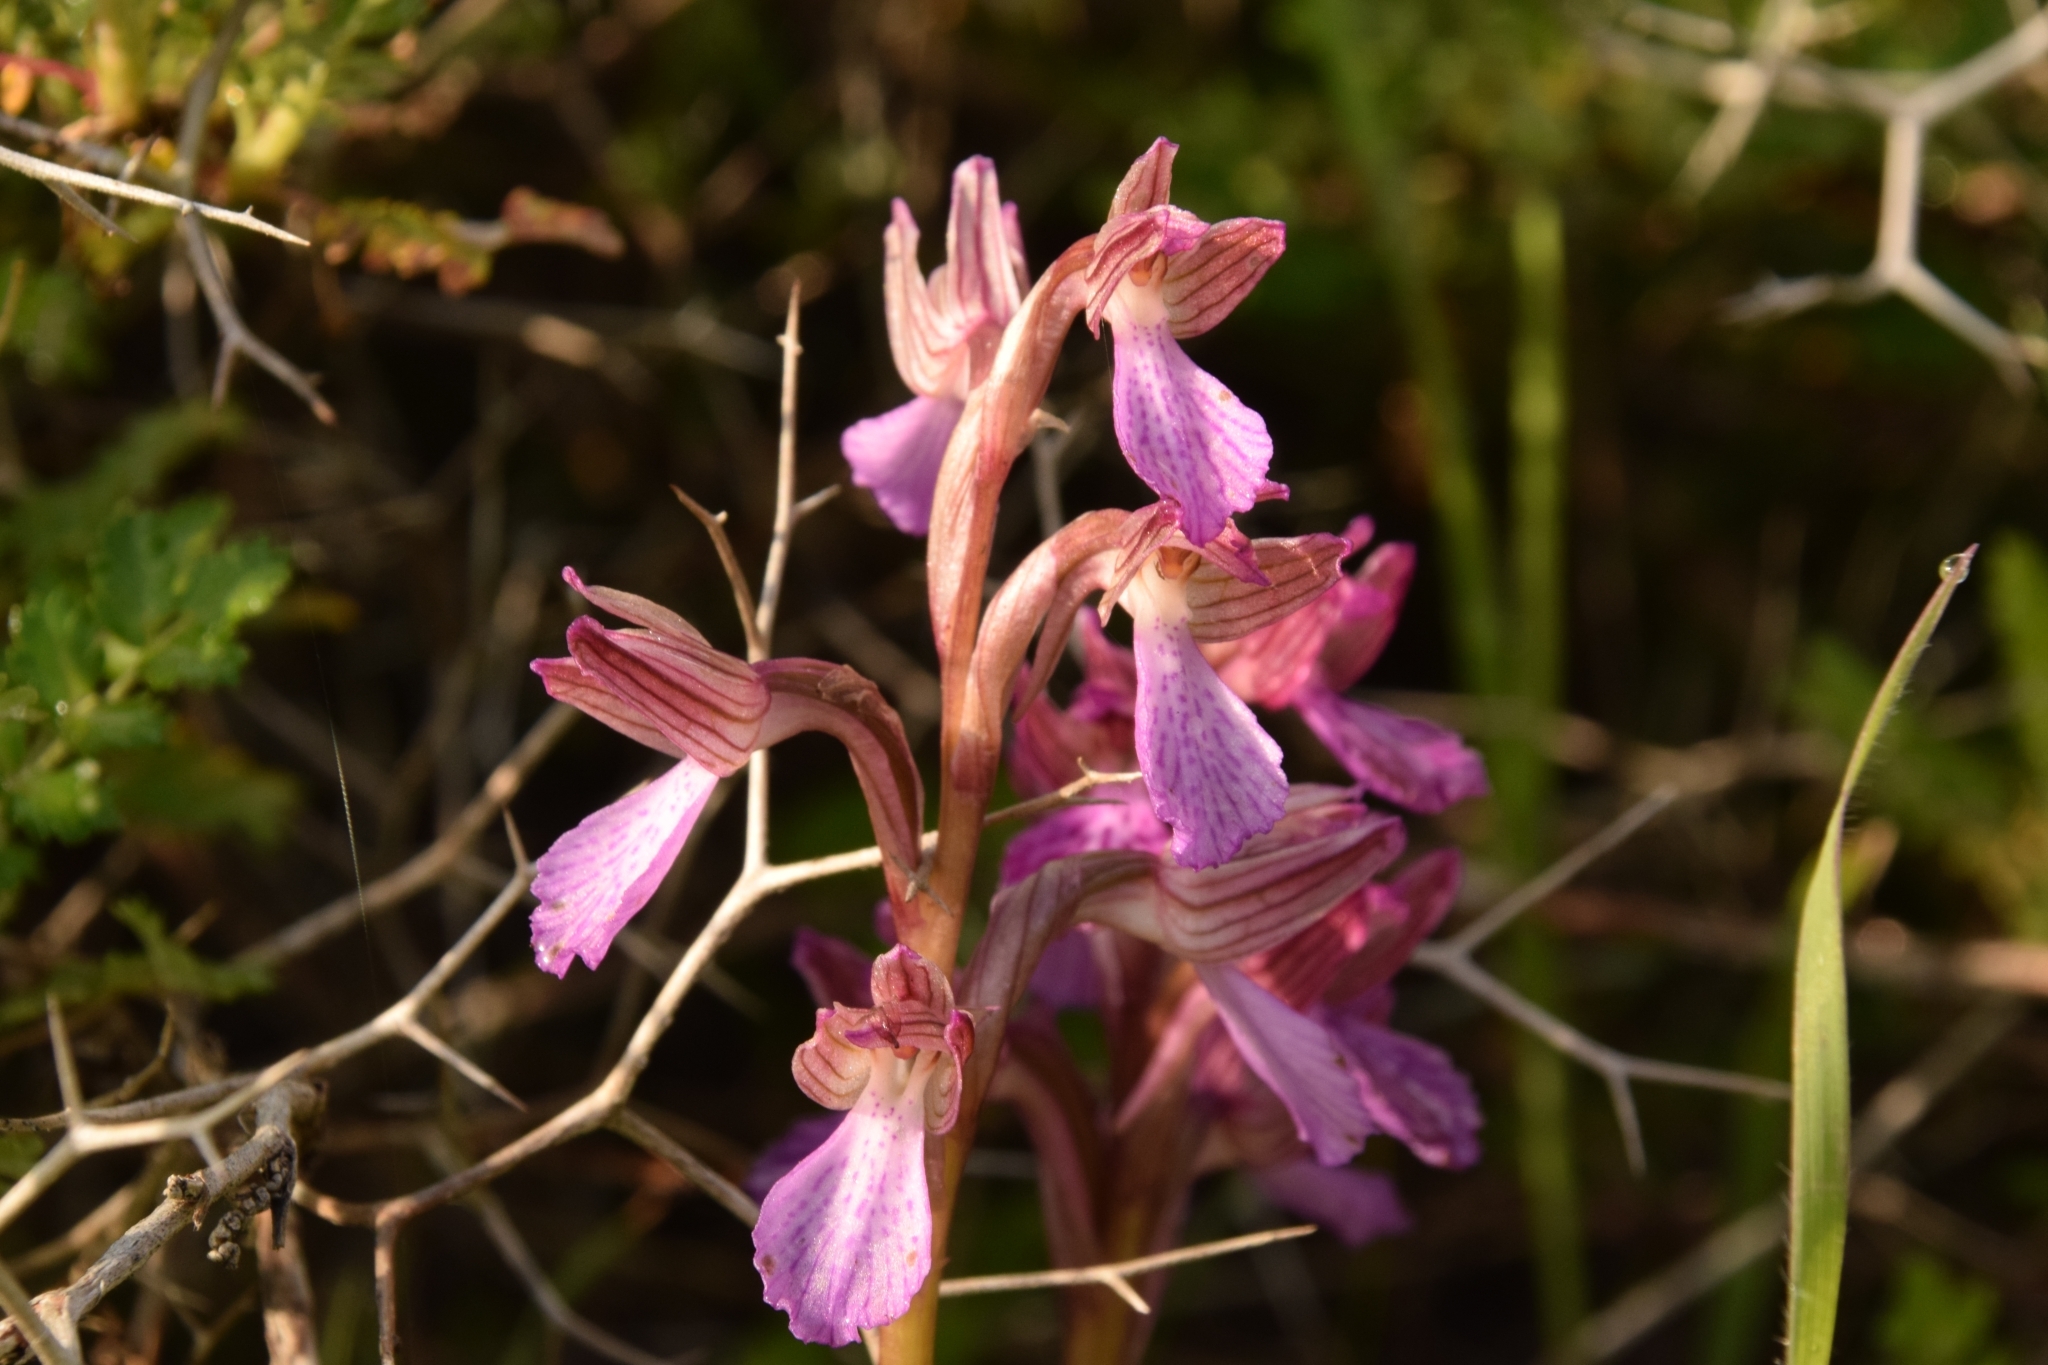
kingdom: Plantae
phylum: Tracheophyta
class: Liliopsida
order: Asparagales
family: Orchidaceae
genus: Anacamptis
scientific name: Anacamptis papilionacea
